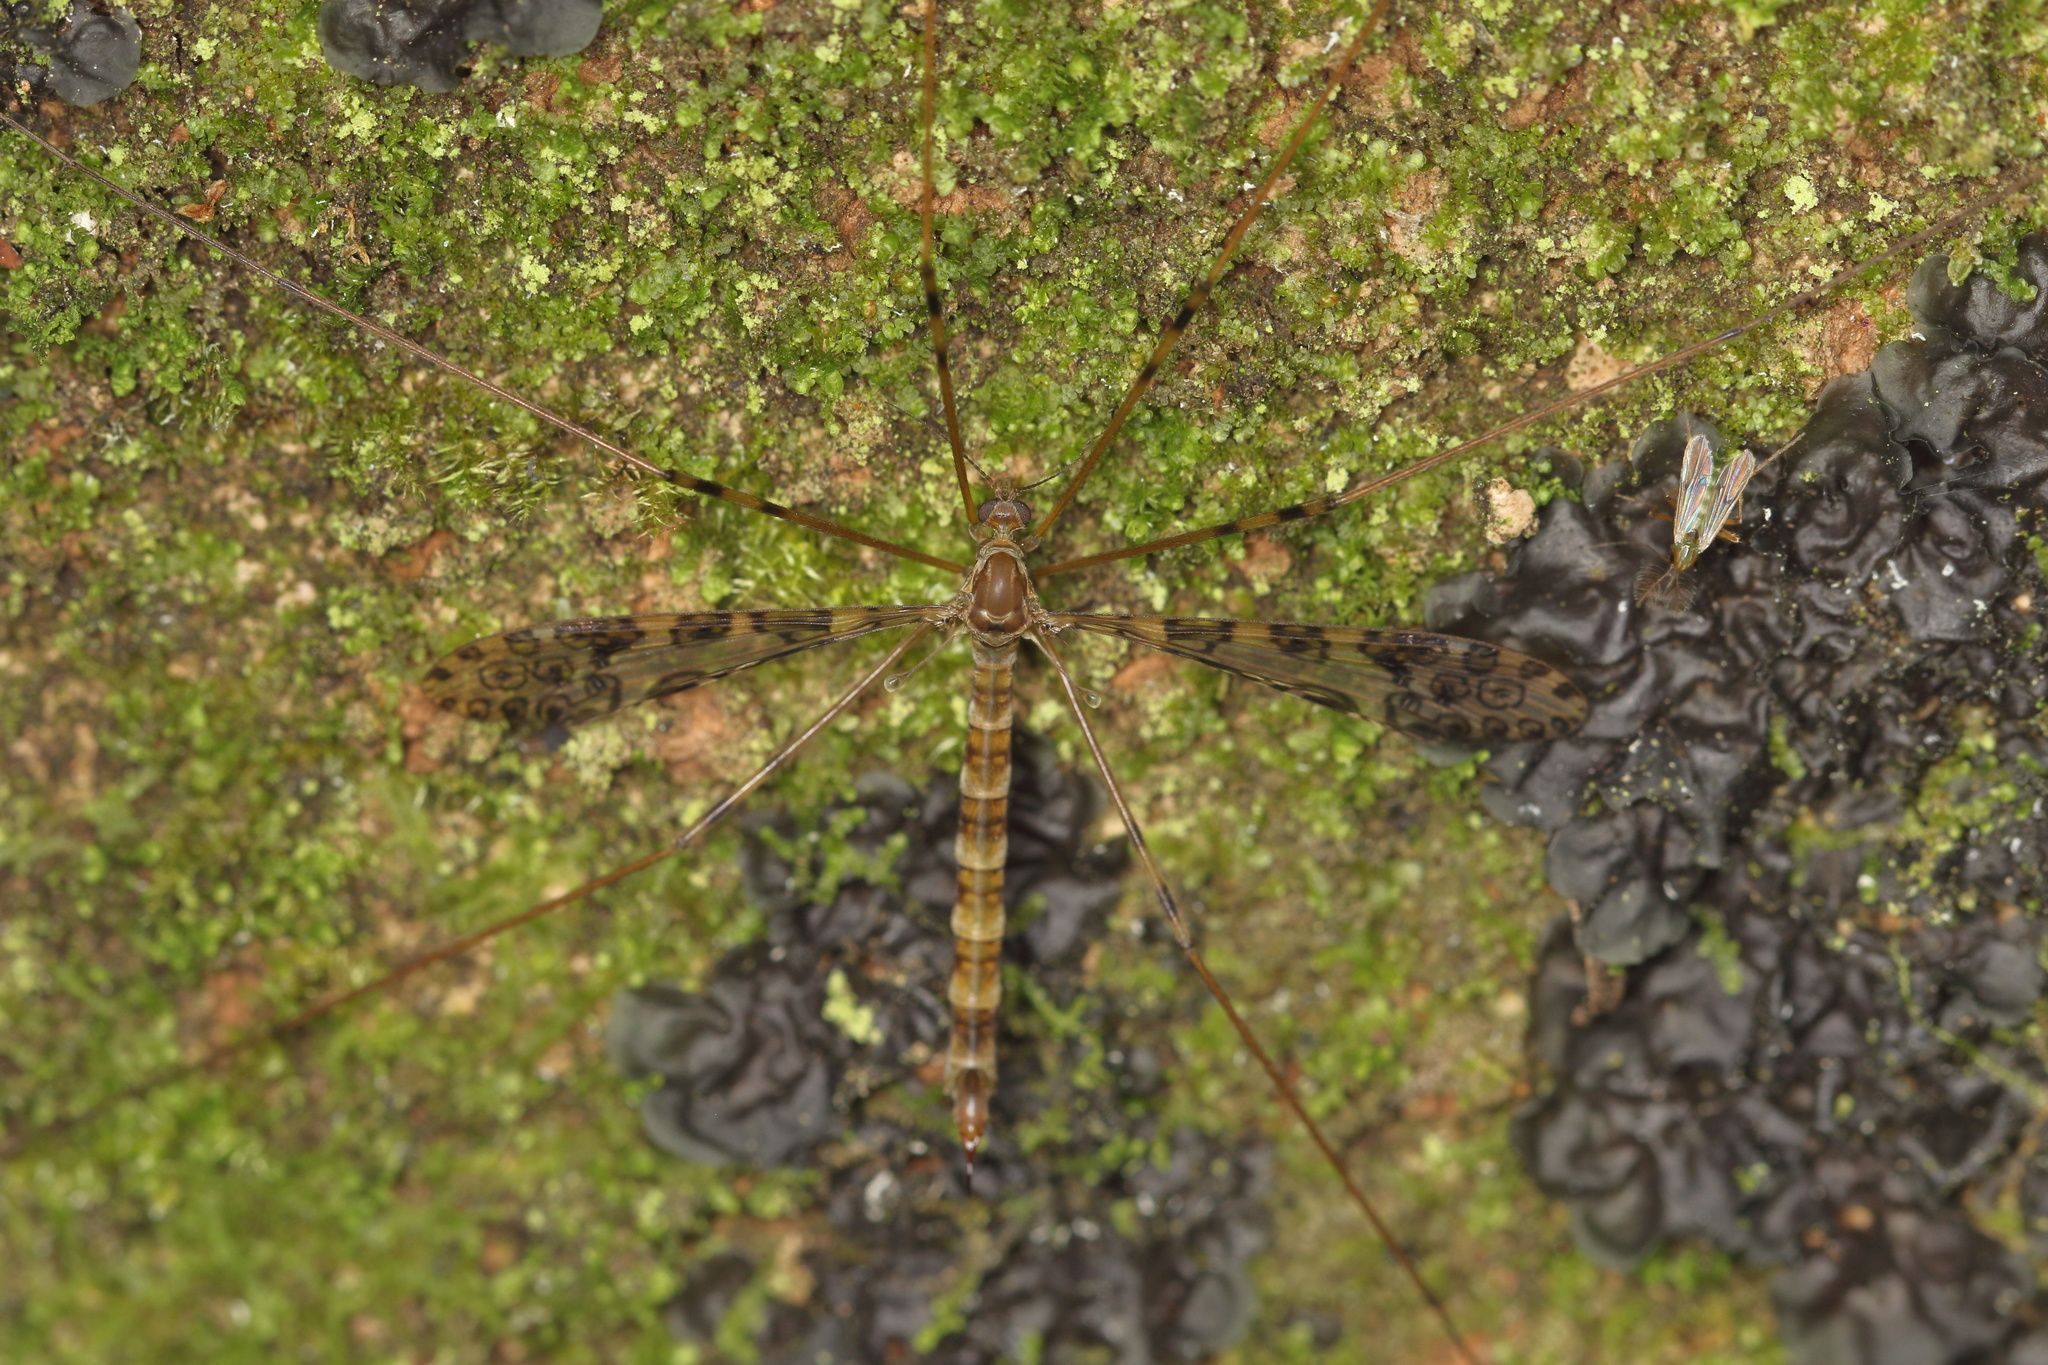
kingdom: Animalia
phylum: Arthropoda
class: Insecta
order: Diptera
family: Limoniidae
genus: Austrolimnophila
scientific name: Austrolimnophila argus
